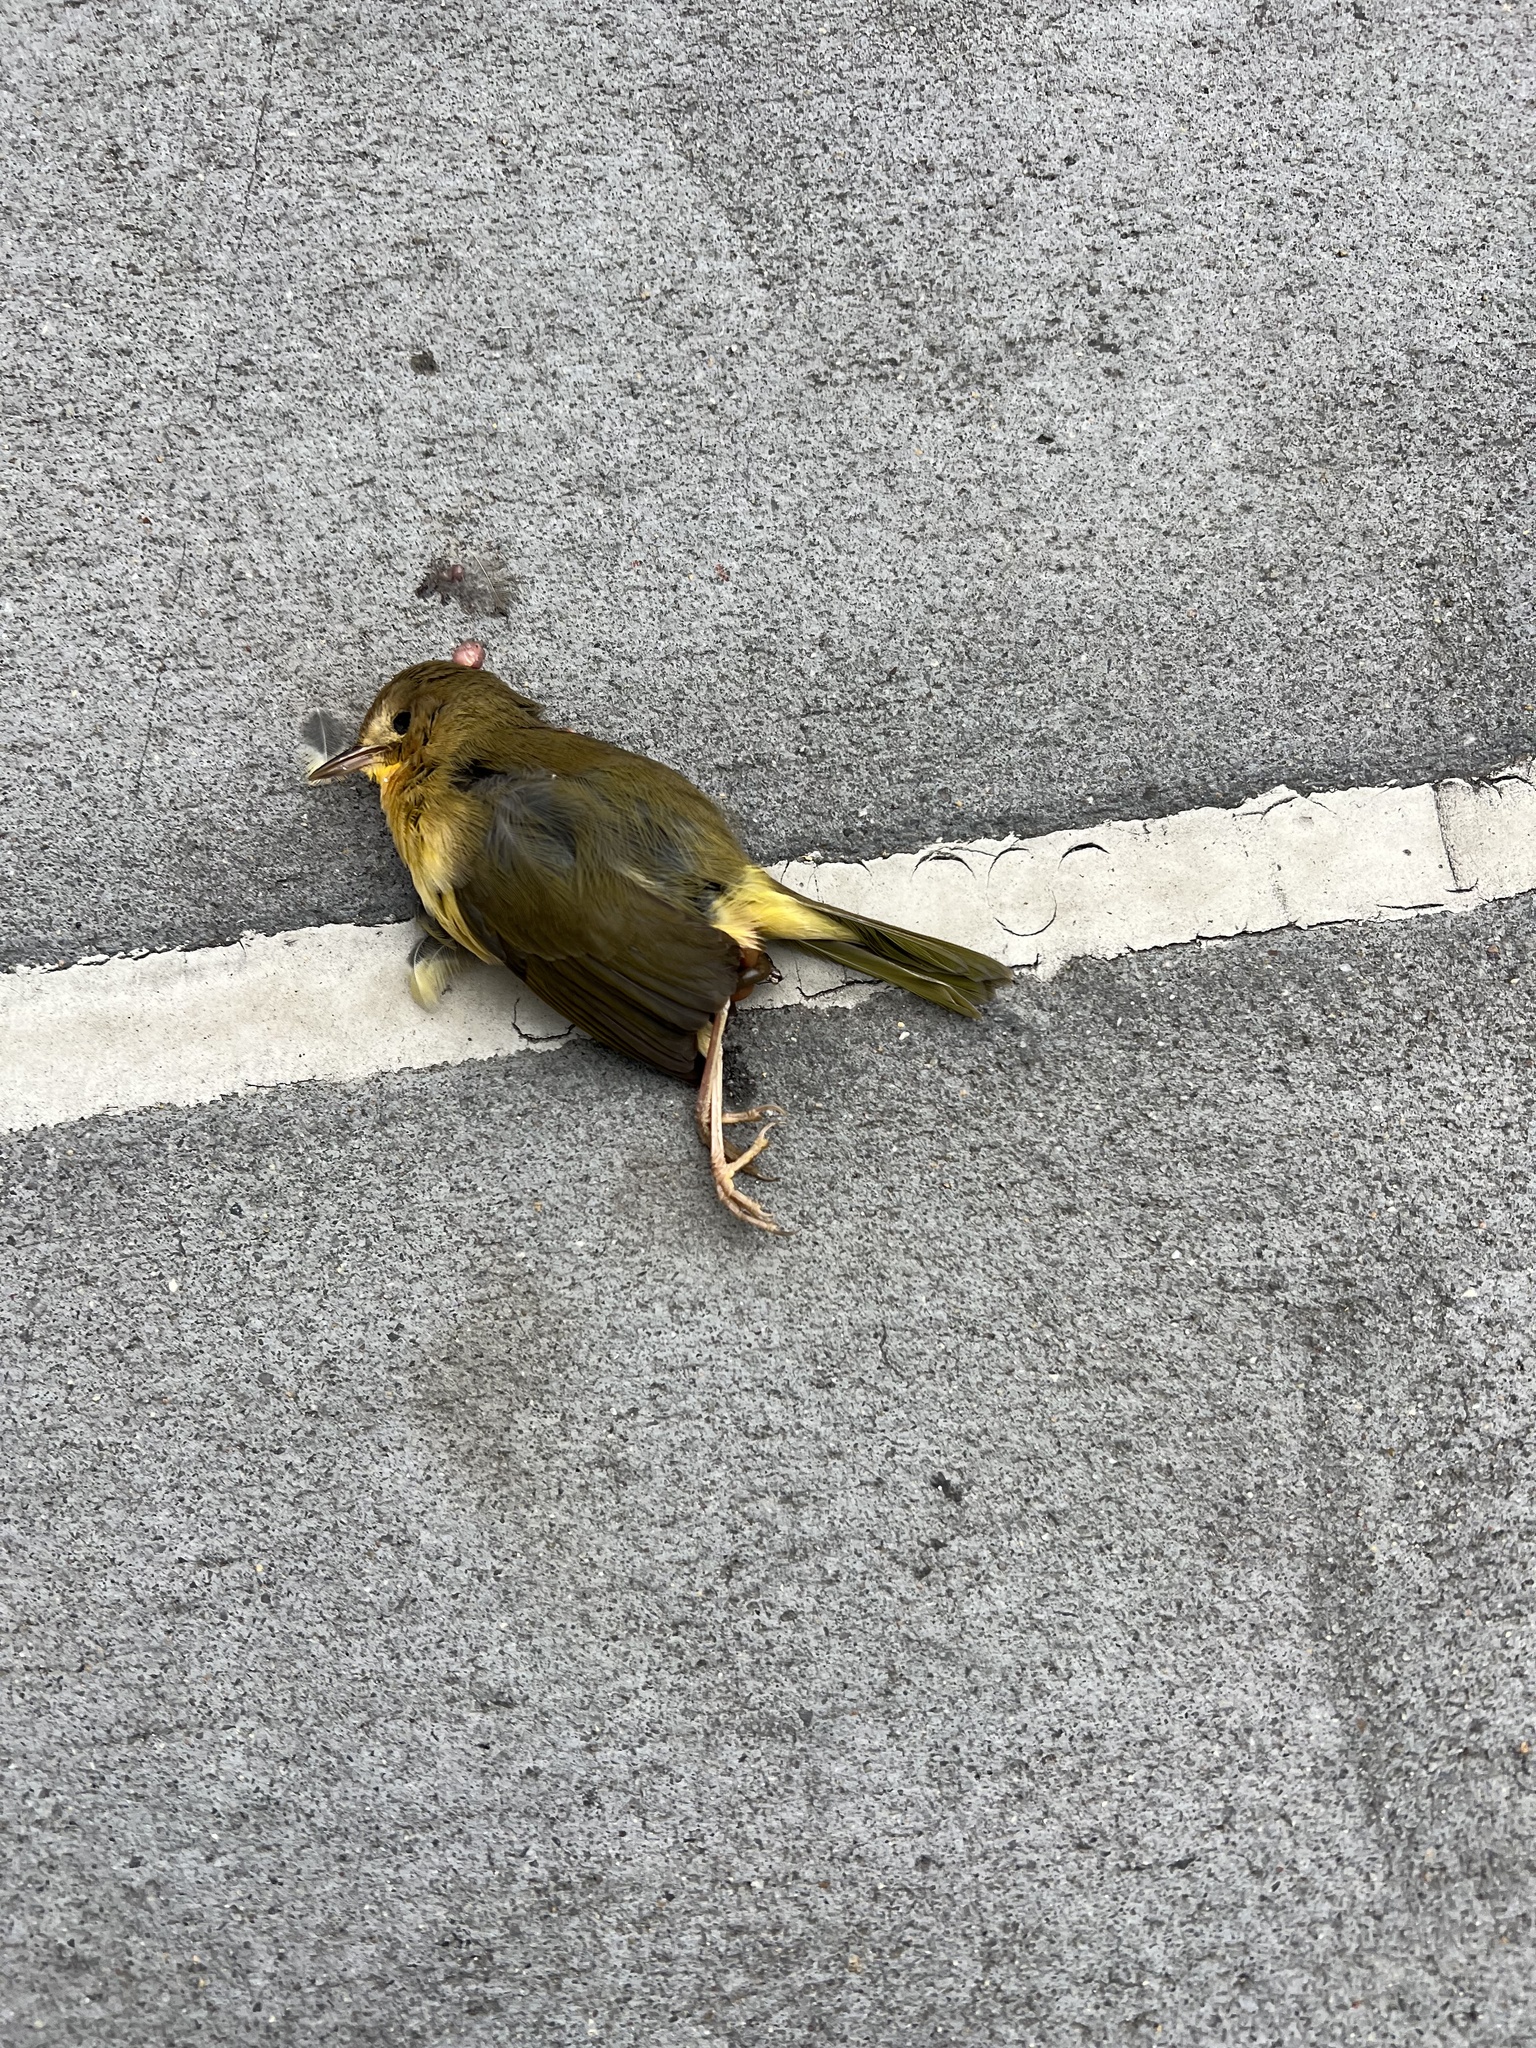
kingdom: Animalia
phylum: Chordata
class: Aves
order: Passeriformes
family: Parulidae
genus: Geothlypis
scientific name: Geothlypis trichas
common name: Common yellowthroat
